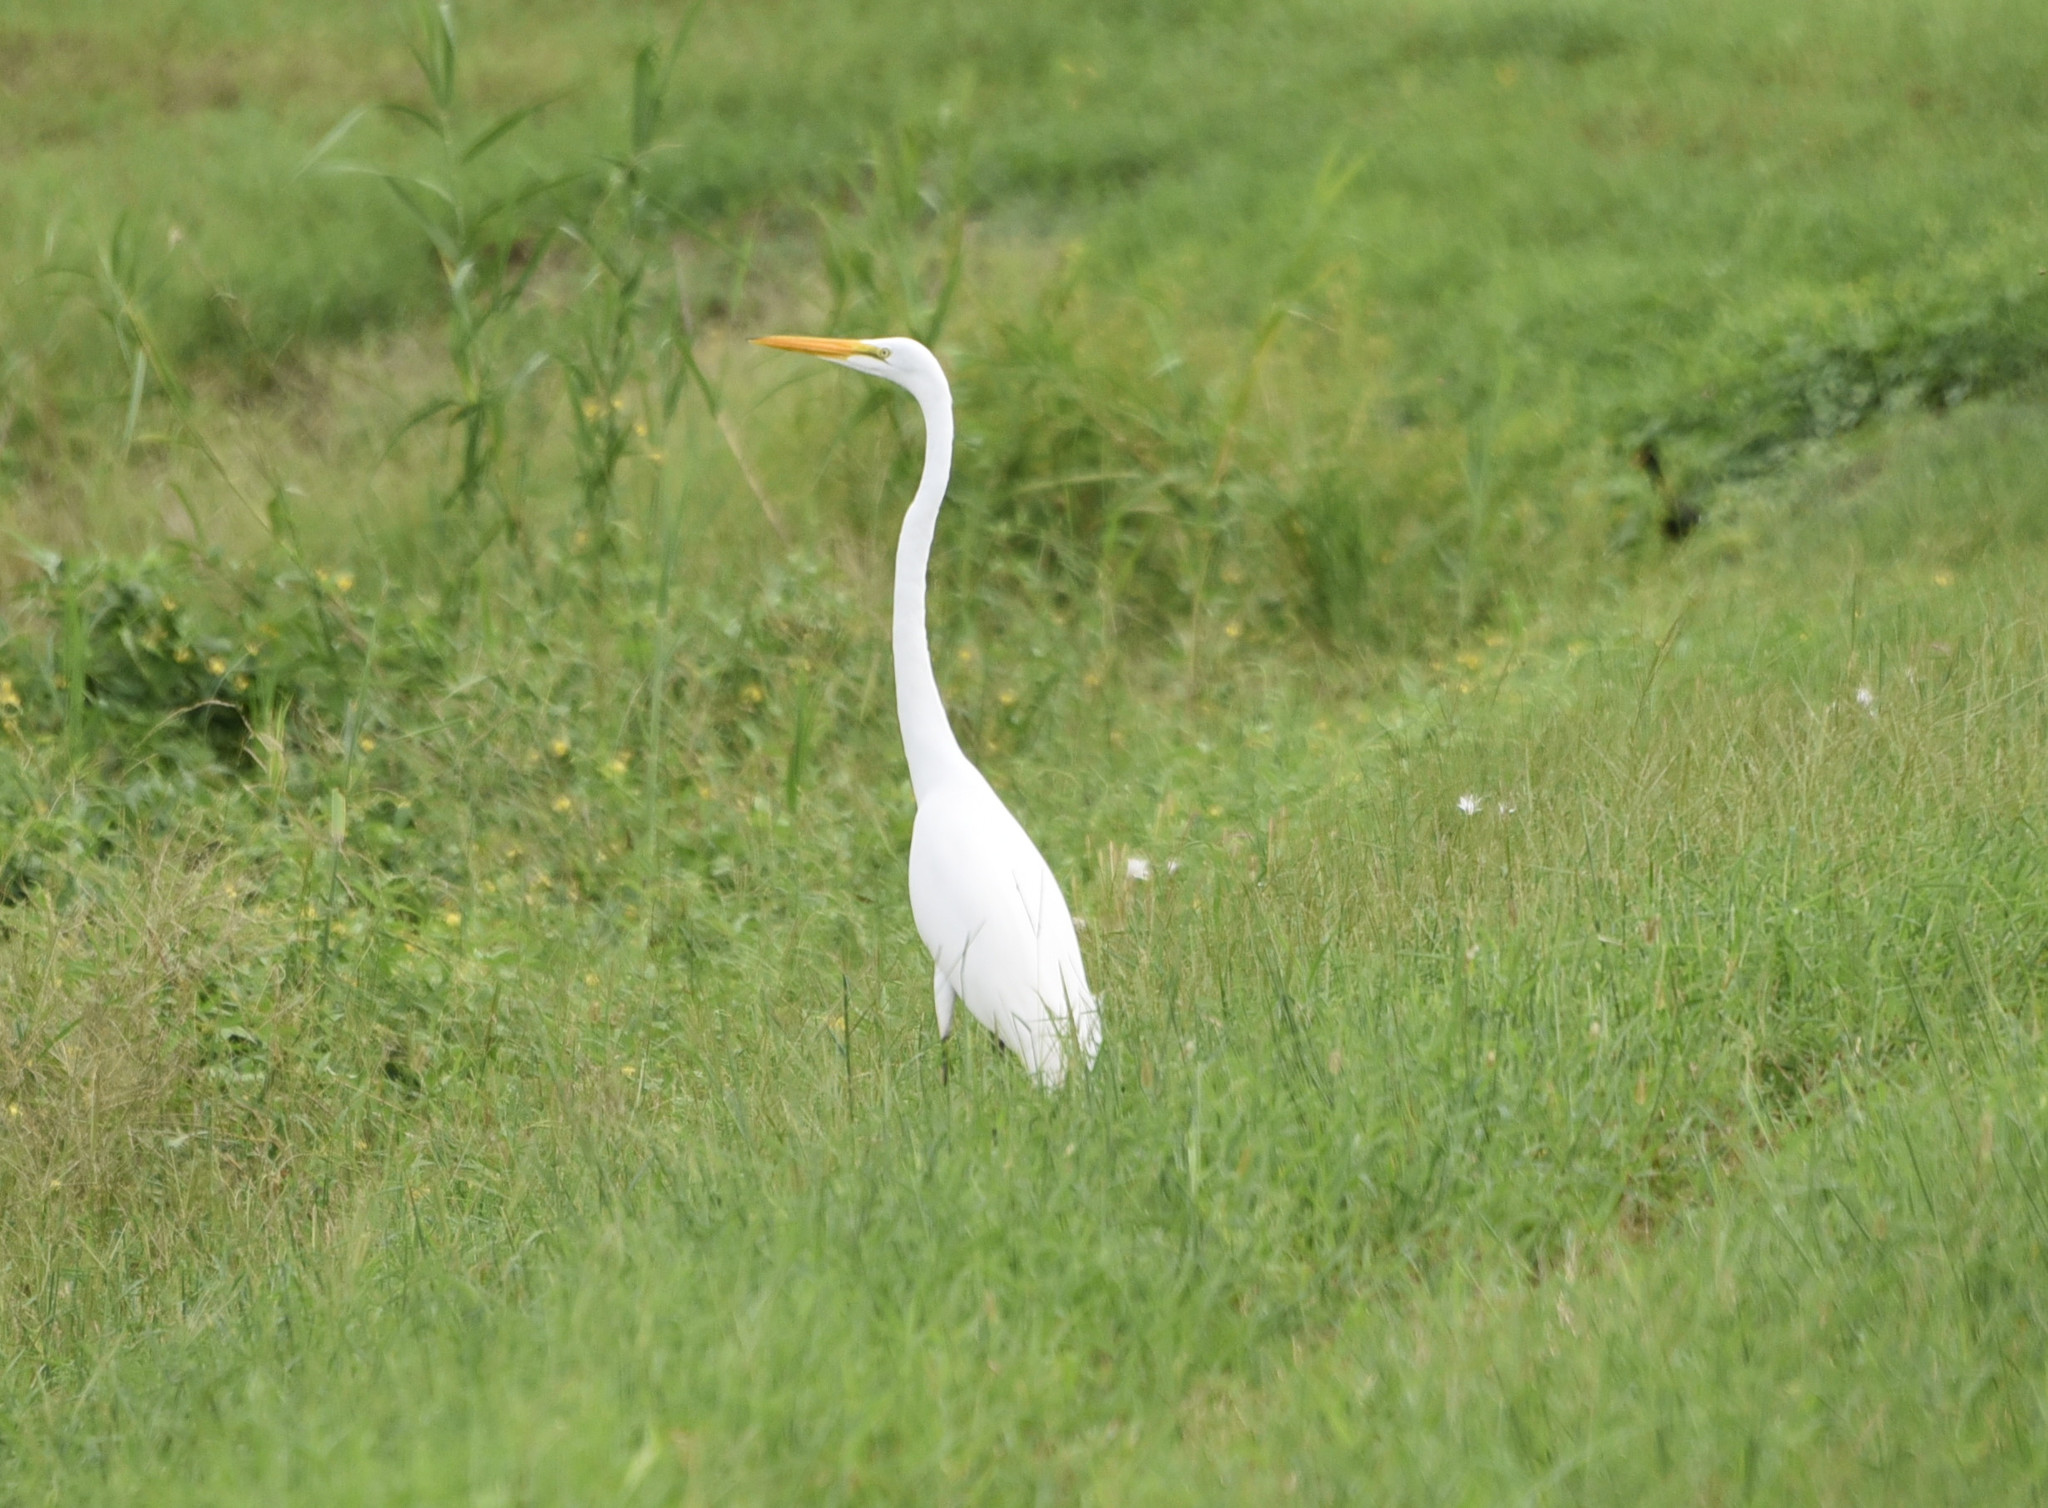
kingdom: Animalia
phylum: Chordata
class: Aves
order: Pelecaniformes
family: Ardeidae
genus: Ardea
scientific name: Ardea alba
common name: Great egret
